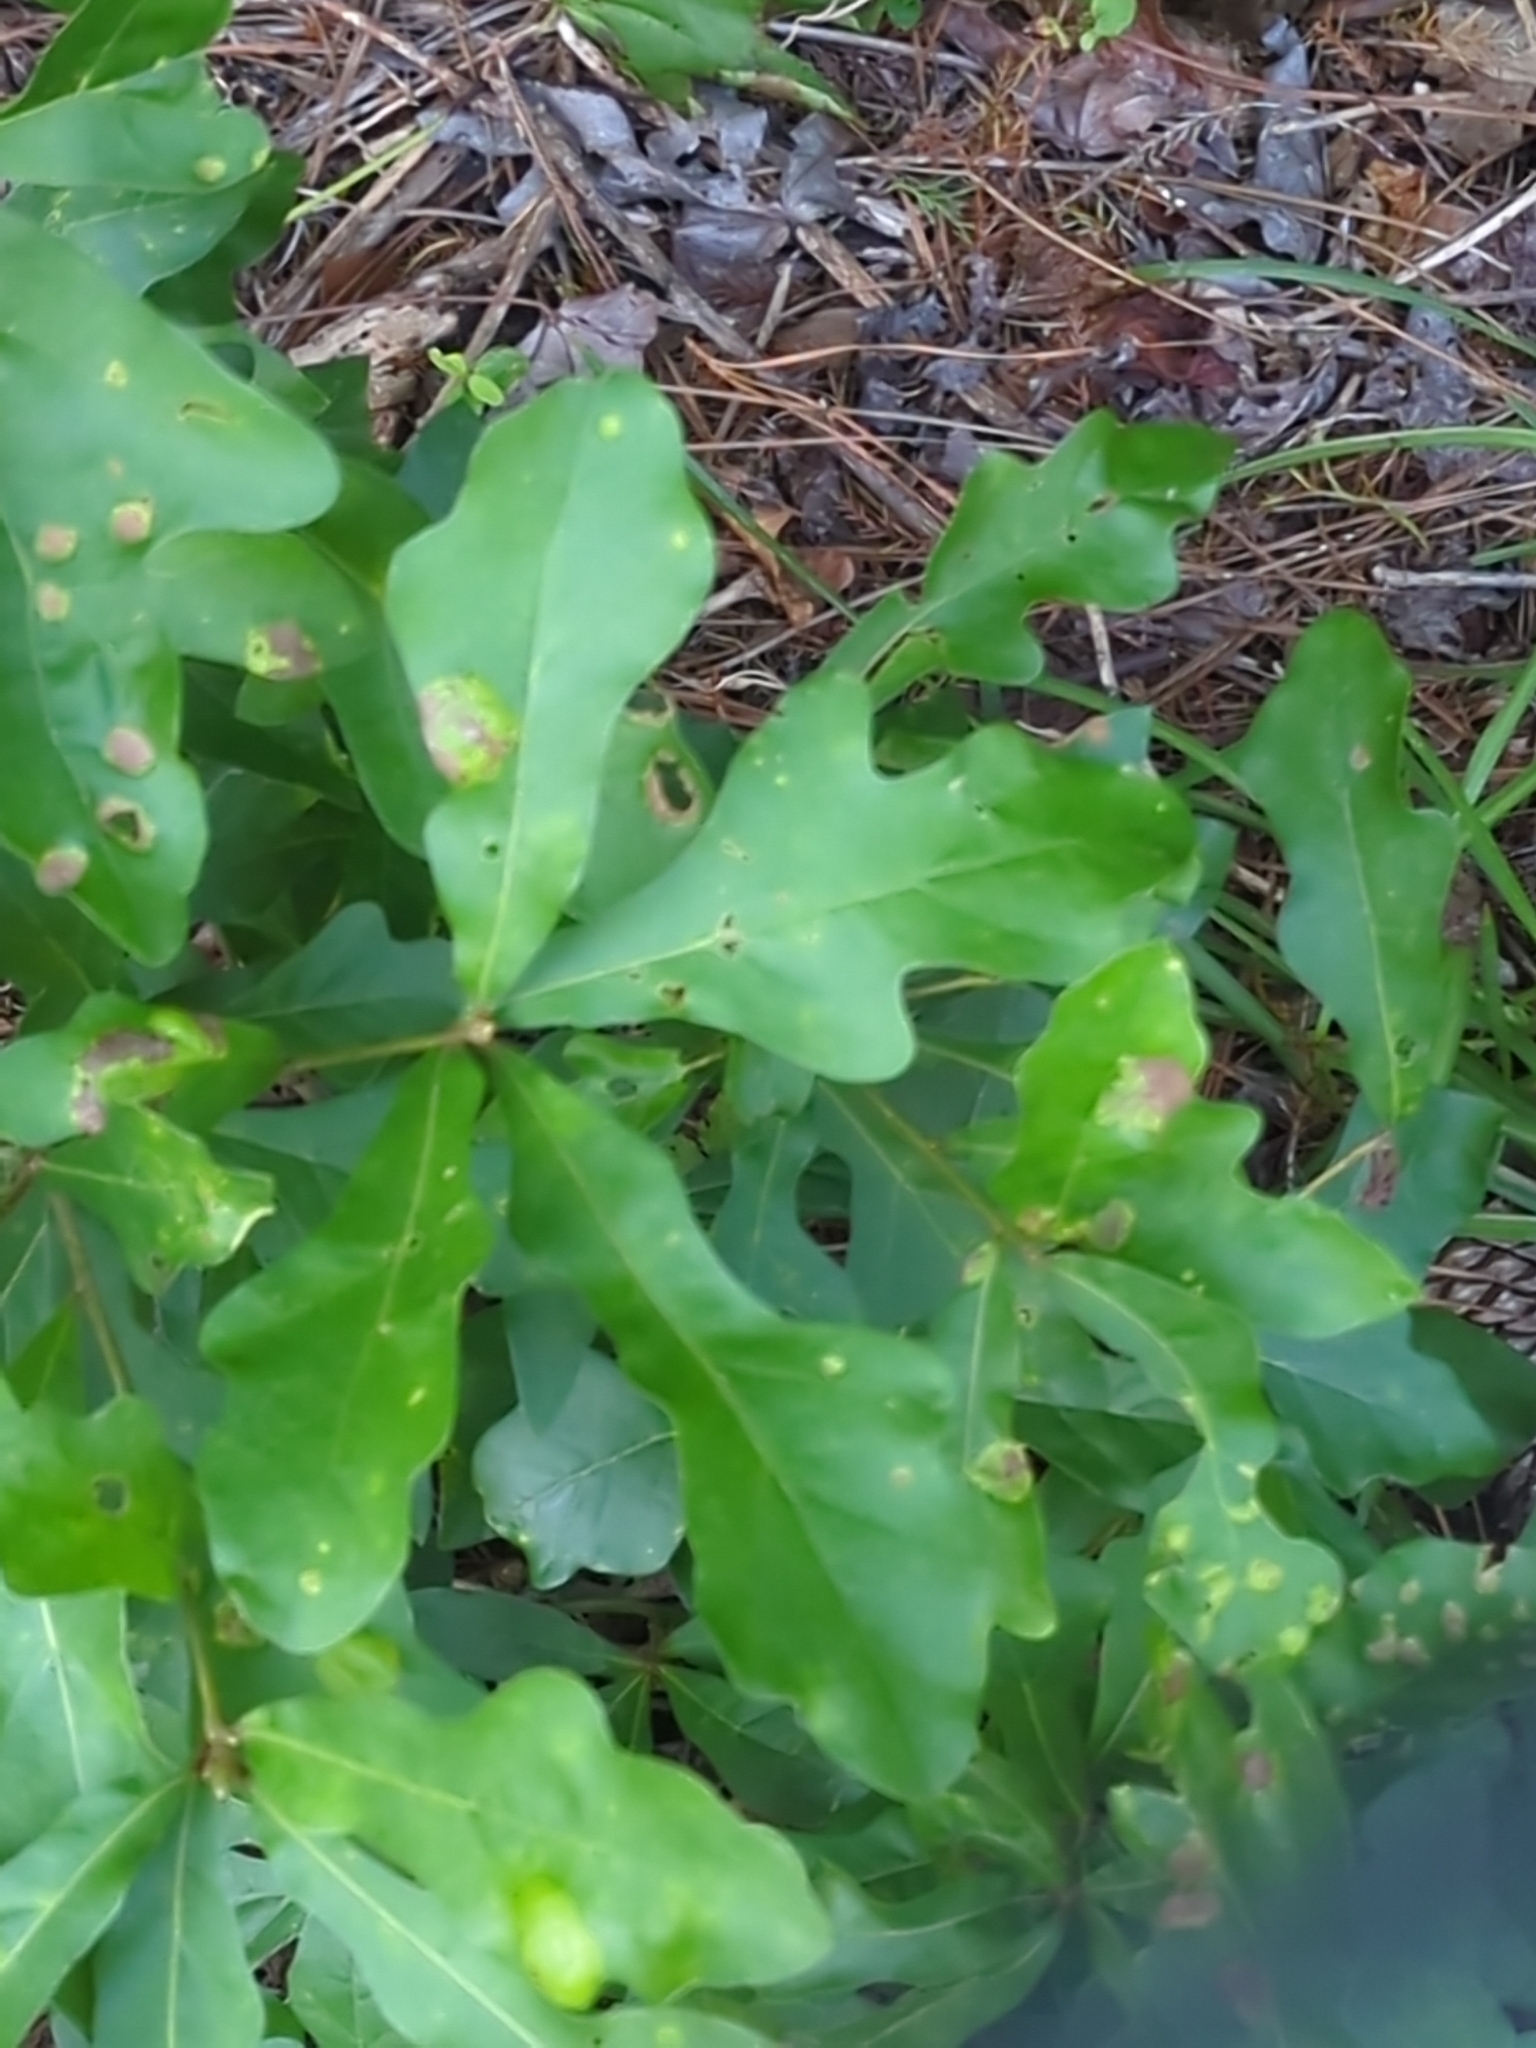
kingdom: Plantae
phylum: Tracheophyta
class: Magnoliopsida
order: Fagales
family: Fagaceae
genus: Quercus
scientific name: Quercus nigra
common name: Water oak
